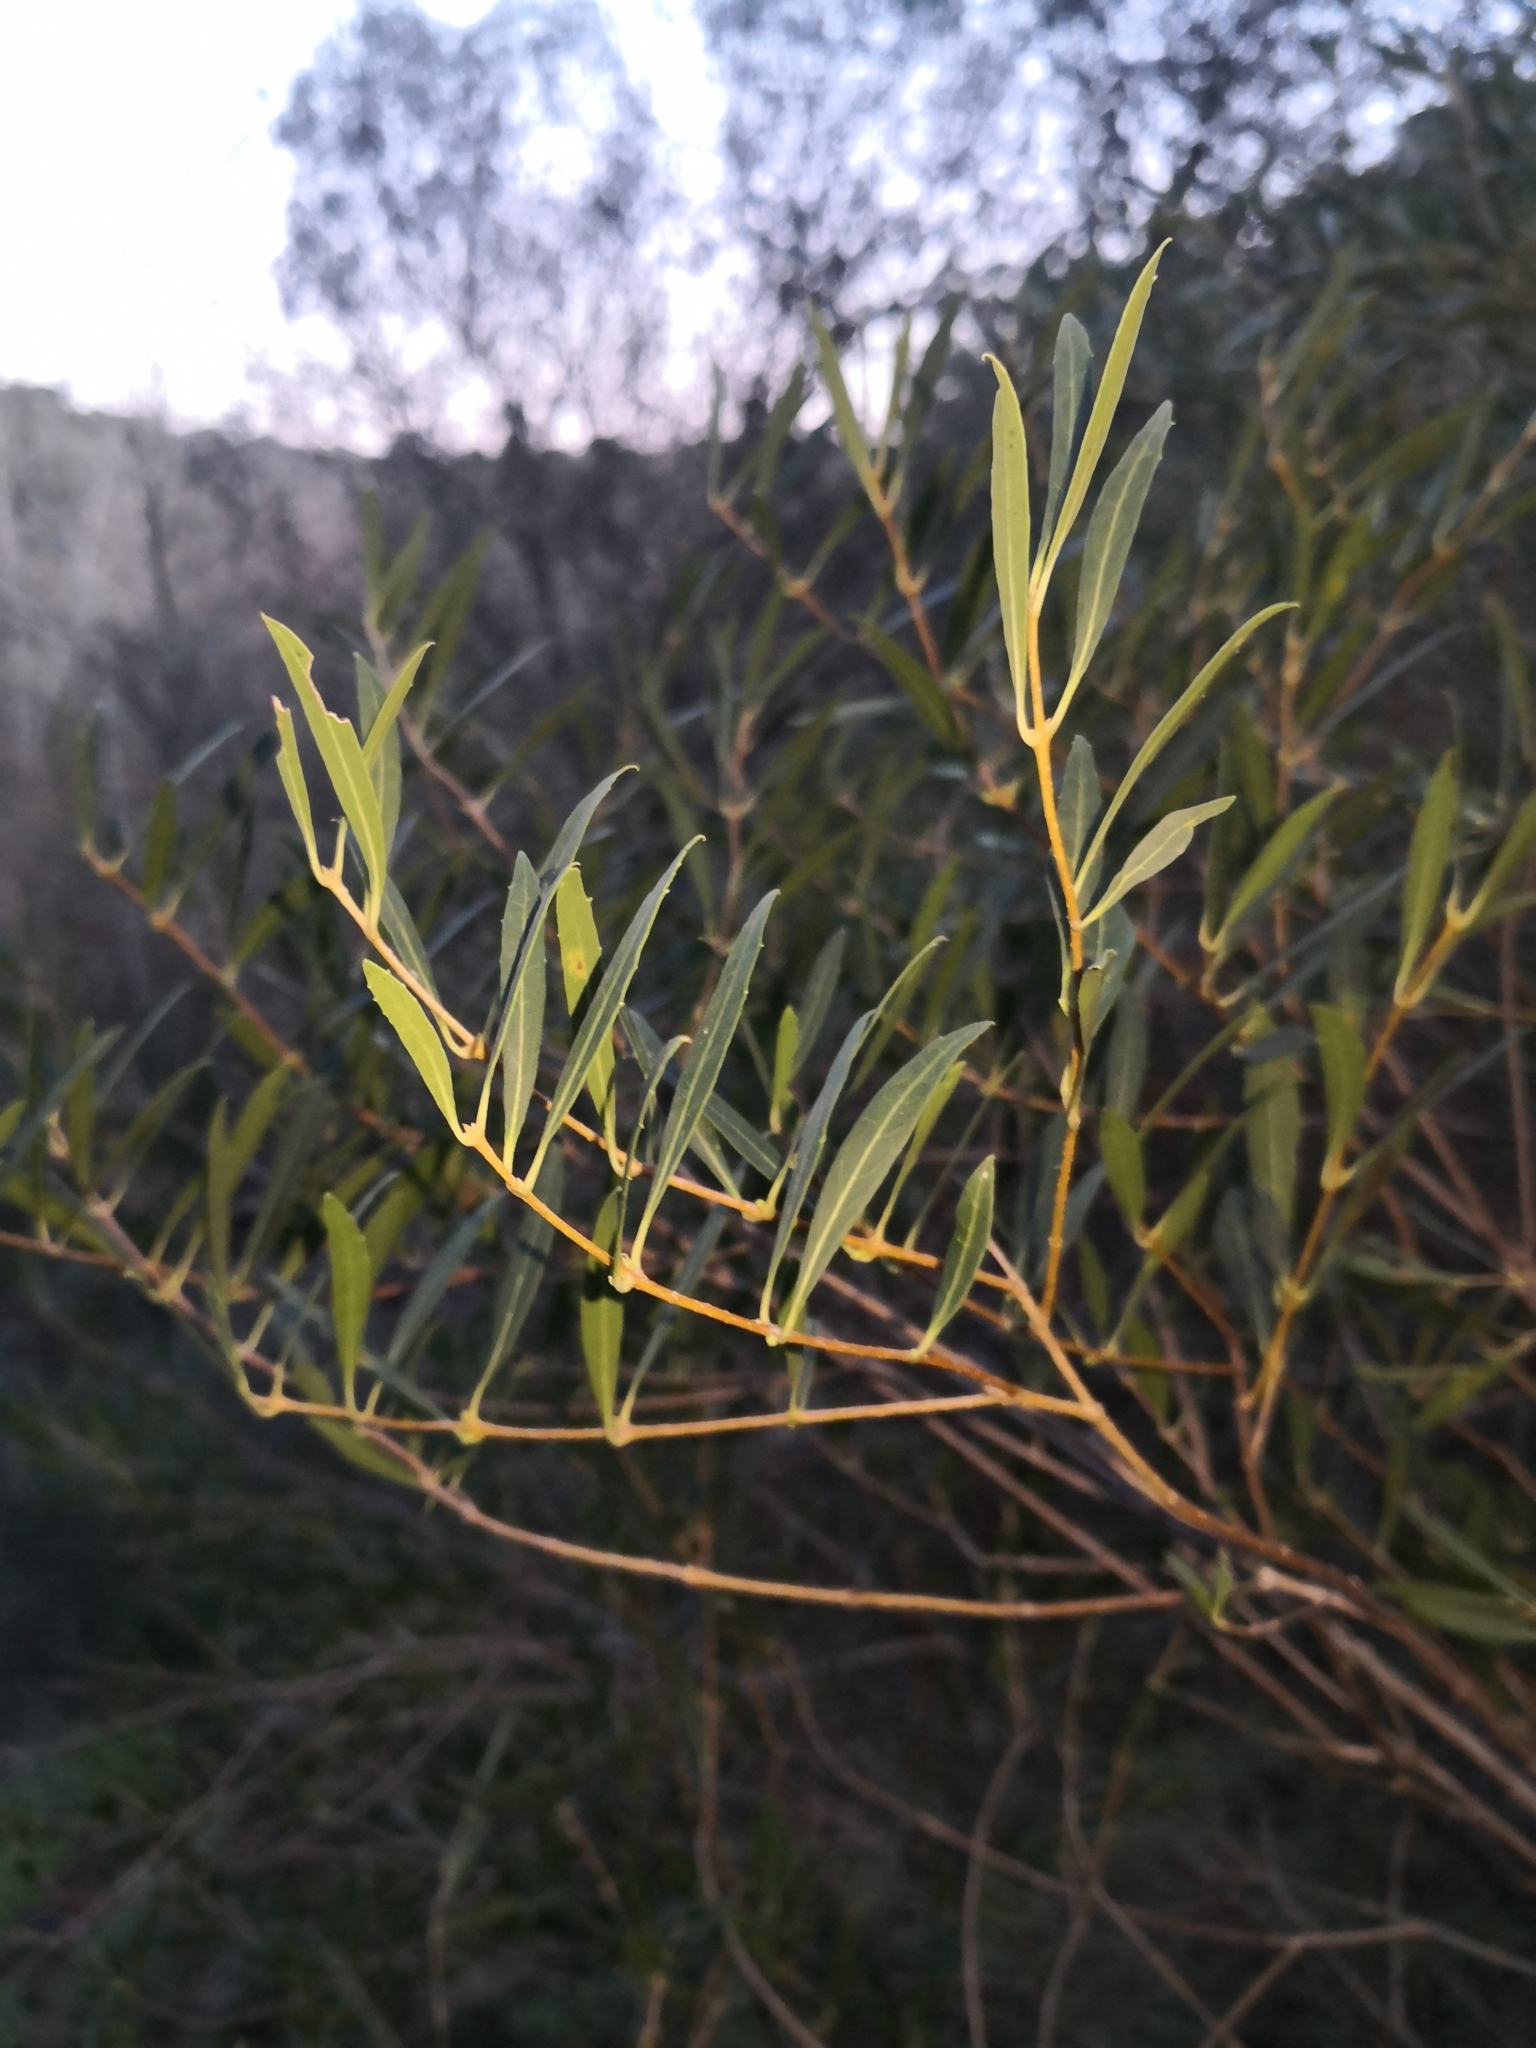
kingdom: Plantae
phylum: Tracheophyta
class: Magnoliopsida
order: Lamiales
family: Oleaceae
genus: Phillyrea
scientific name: Phillyrea angustifolia
